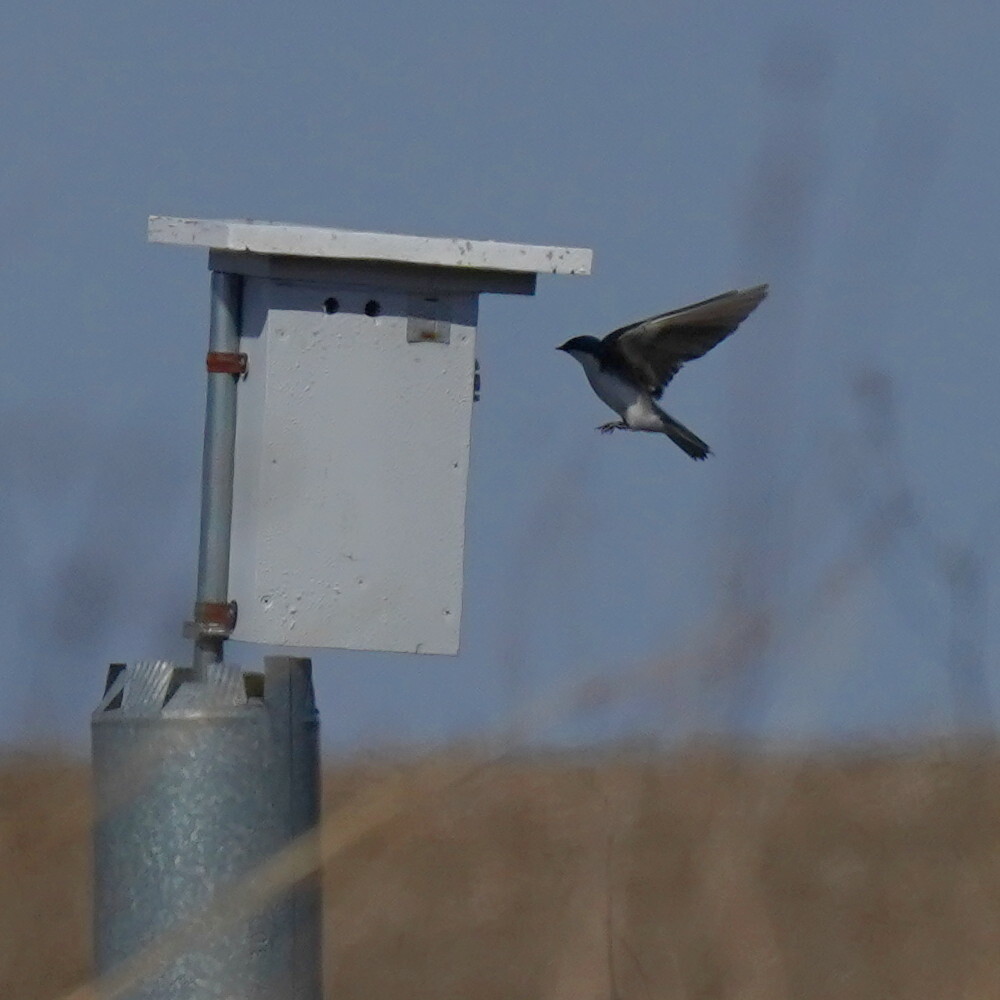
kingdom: Animalia
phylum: Chordata
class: Aves
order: Passeriformes
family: Hirundinidae
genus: Tachycineta
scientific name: Tachycineta bicolor
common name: Tree swallow
